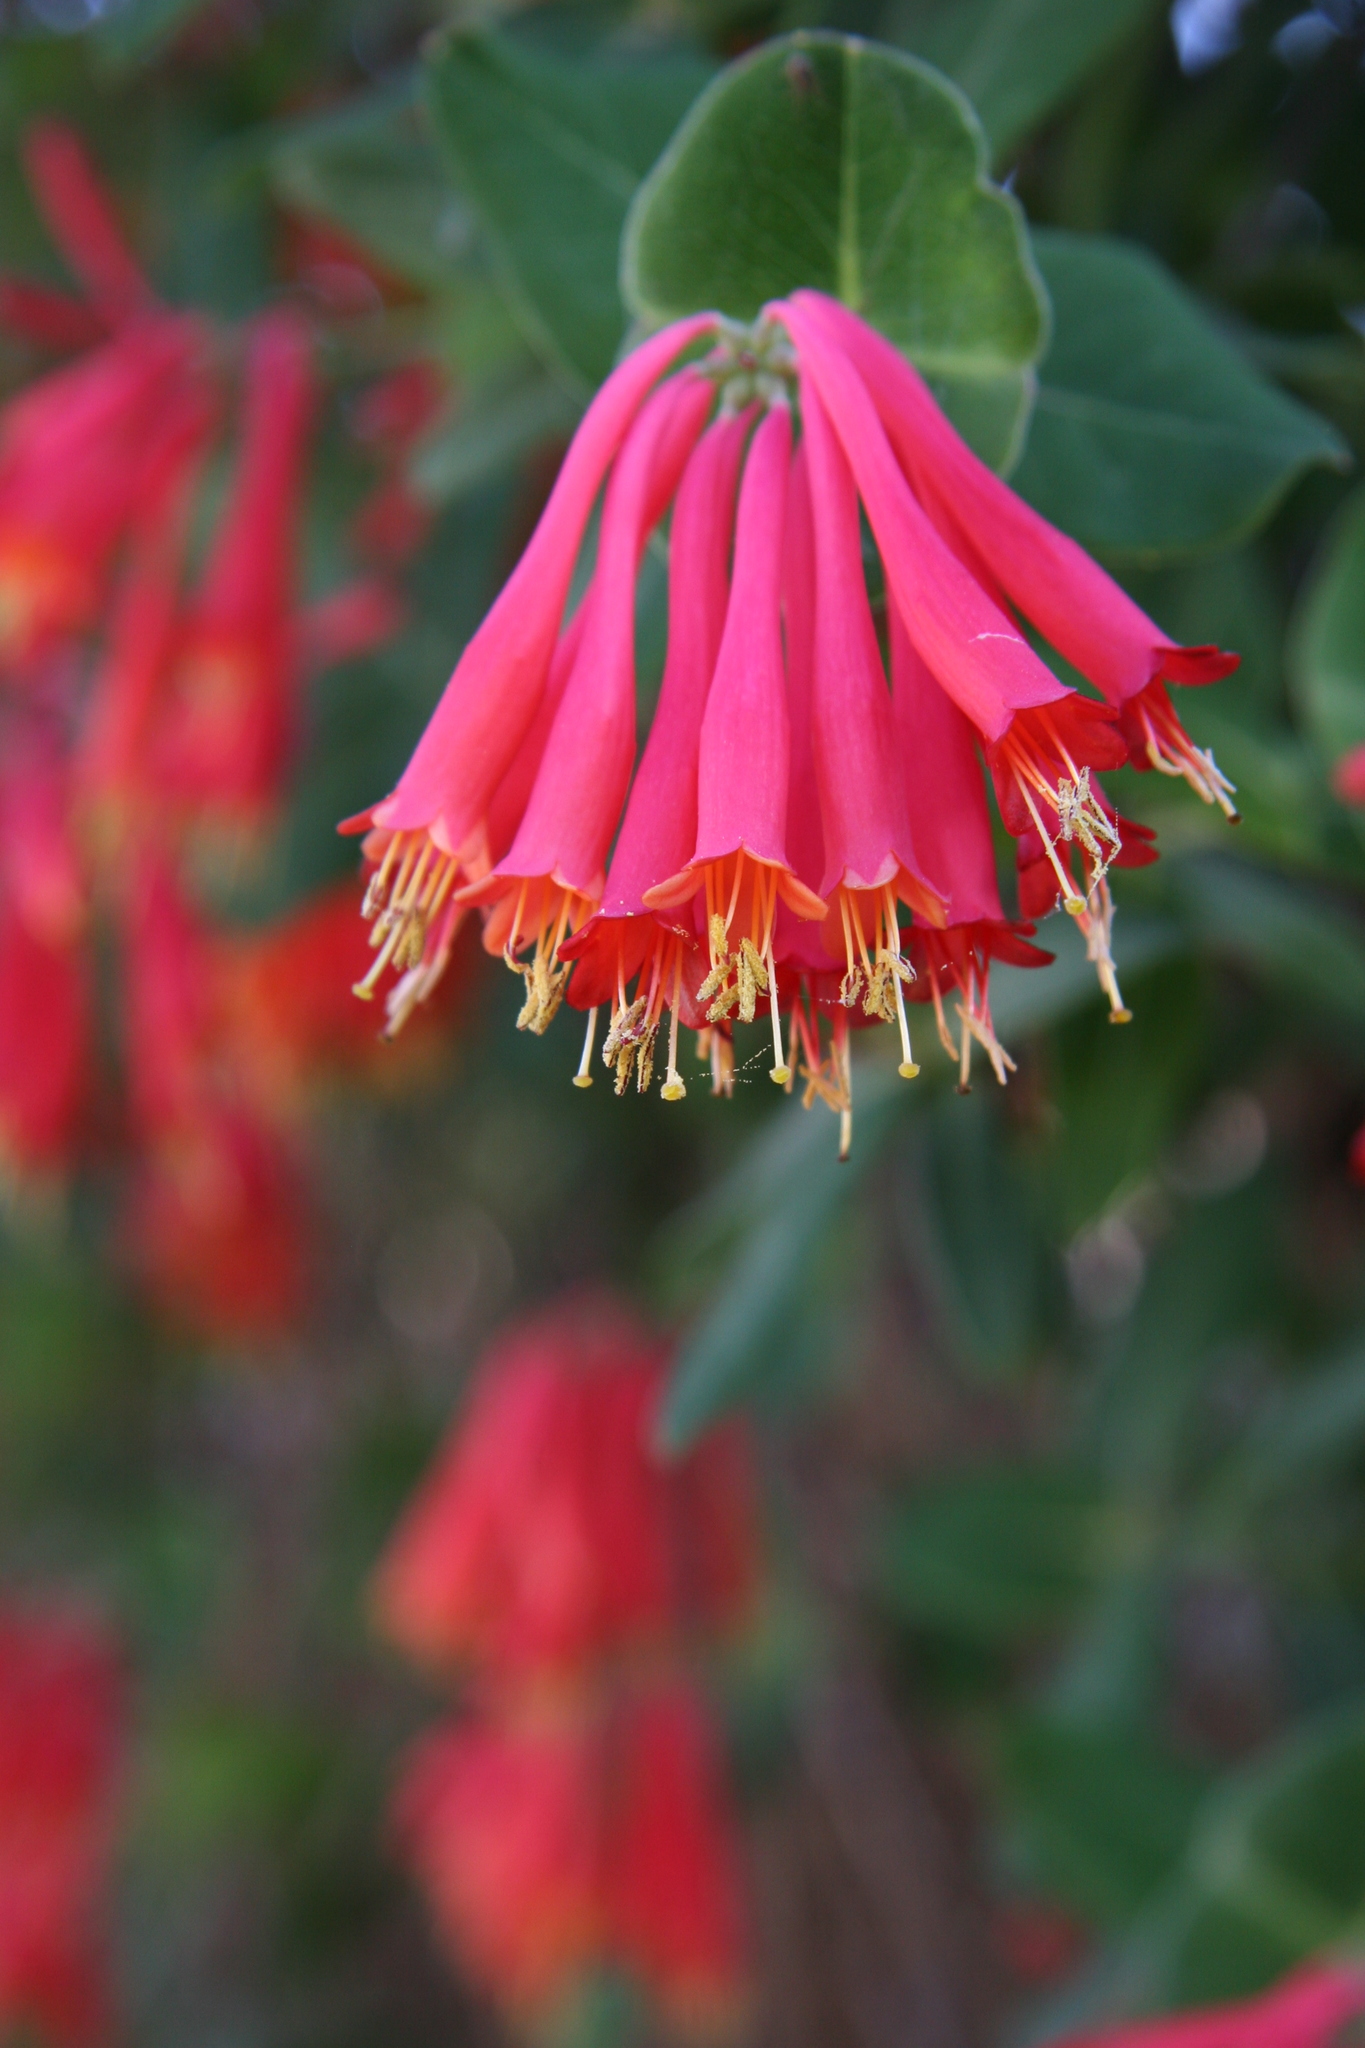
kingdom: Plantae
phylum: Tracheophyta
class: Magnoliopsida
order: Dipsacales
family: Caprifoliaceae
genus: Lonicera
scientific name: Lonicera sempervirens
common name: Coral honeysuckle
